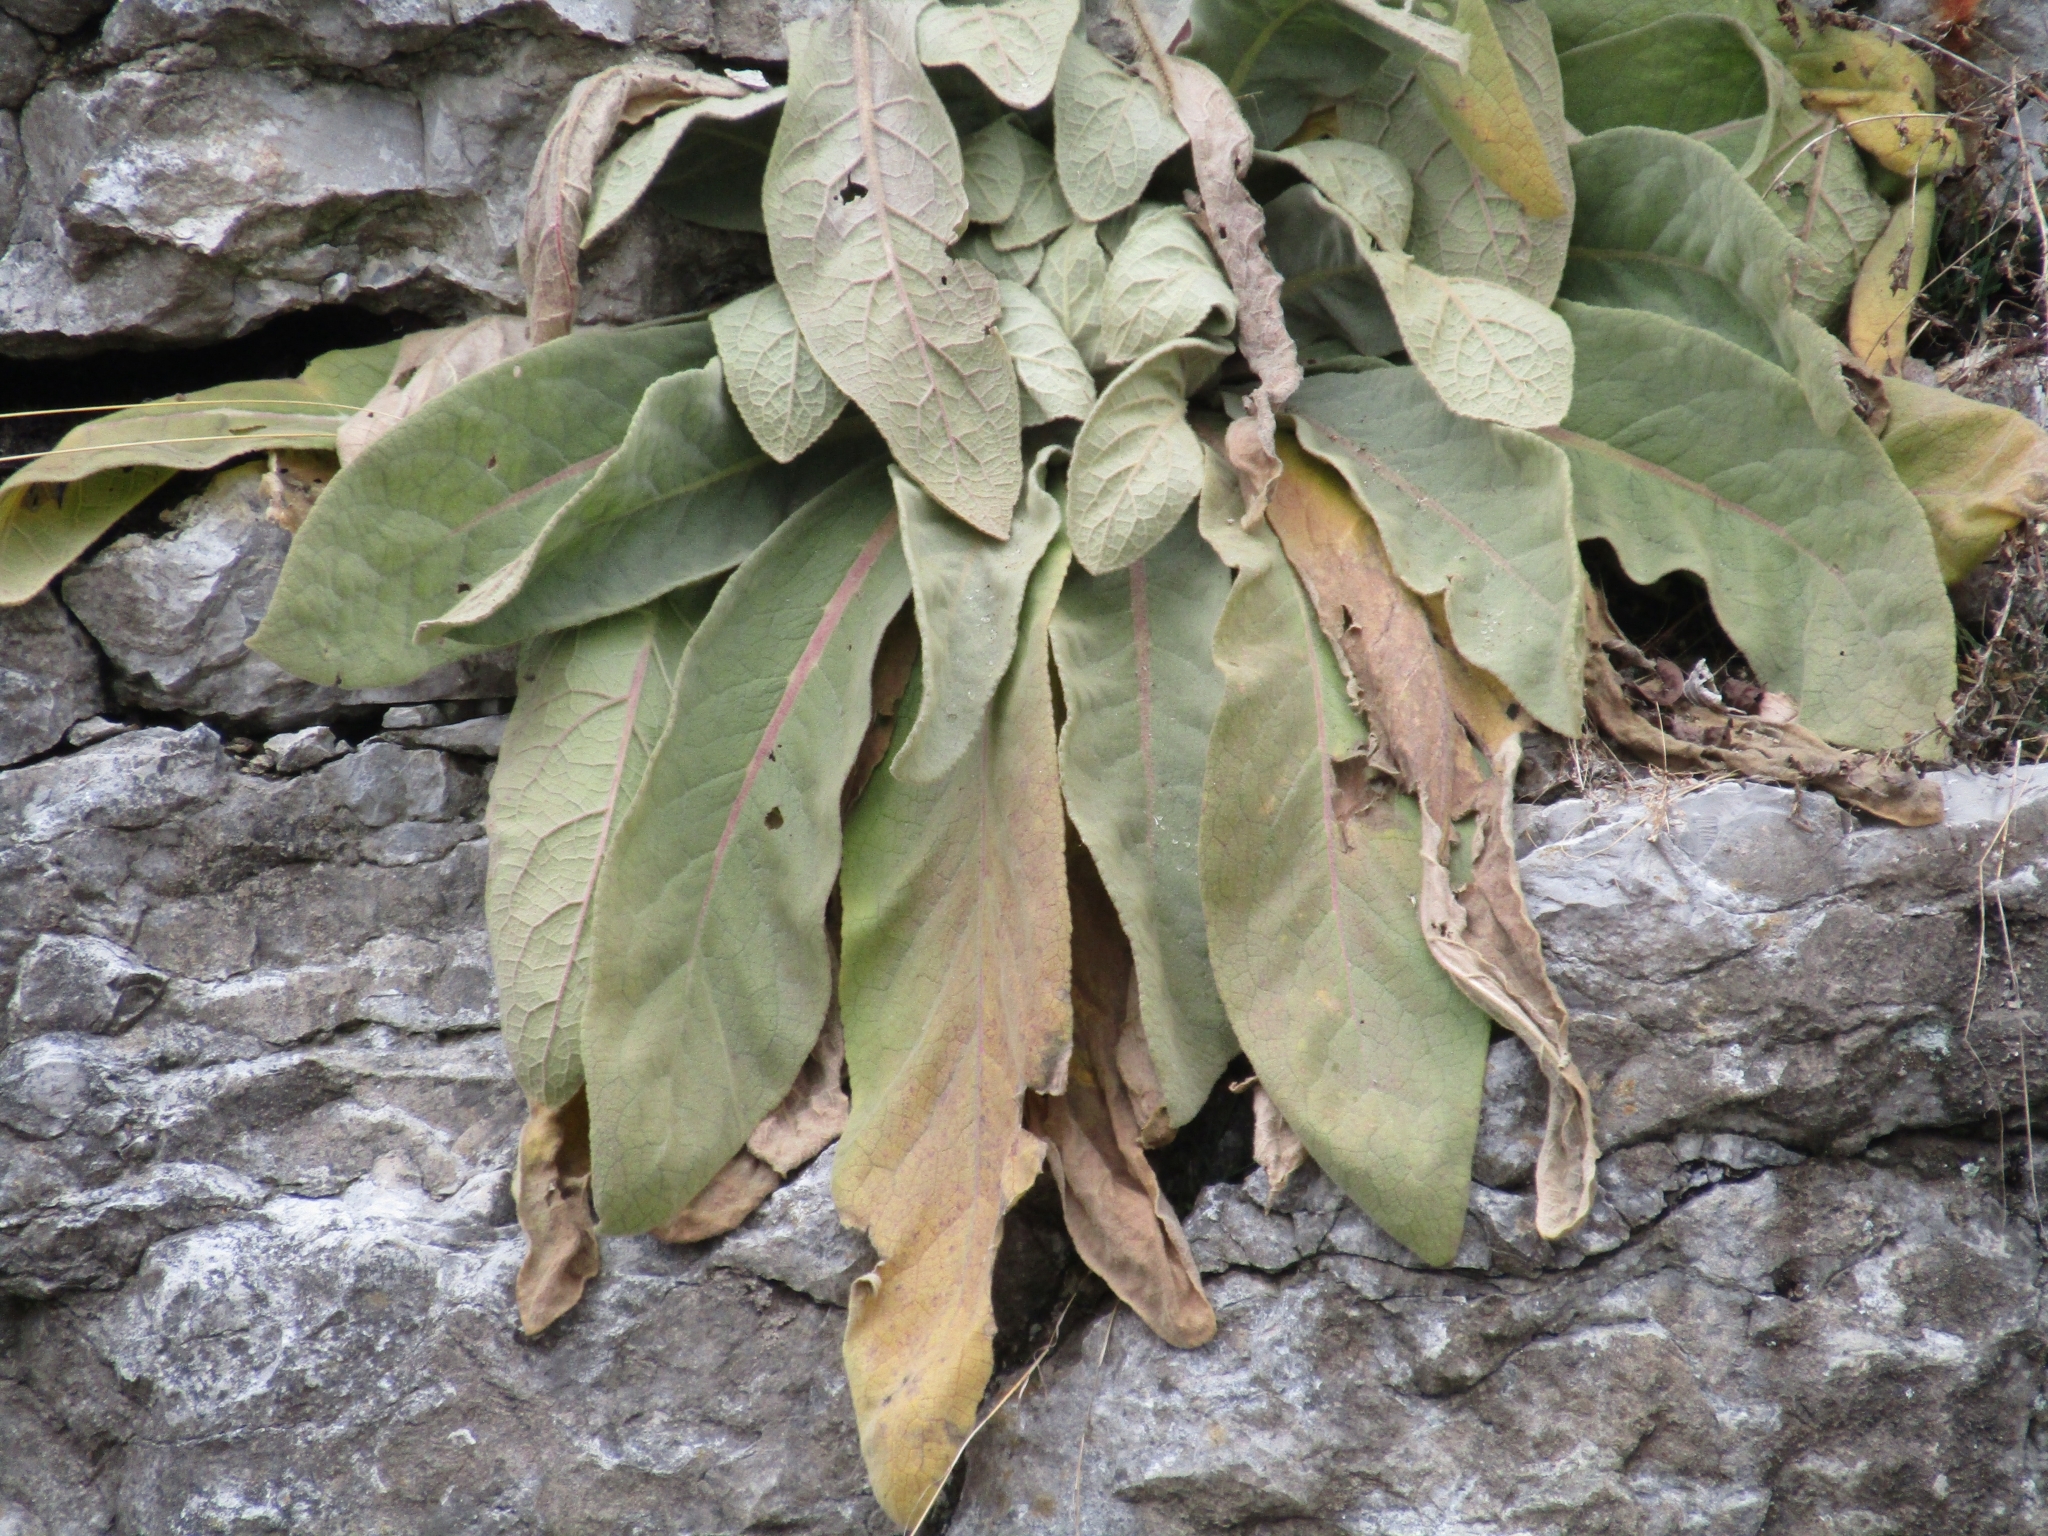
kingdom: Plantae
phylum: Tracheophyta
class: Magnoliopsida
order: Lamiales
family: Scrophulariaceae
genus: Verbascum
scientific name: Verbascum thapsus
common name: Common mullein
